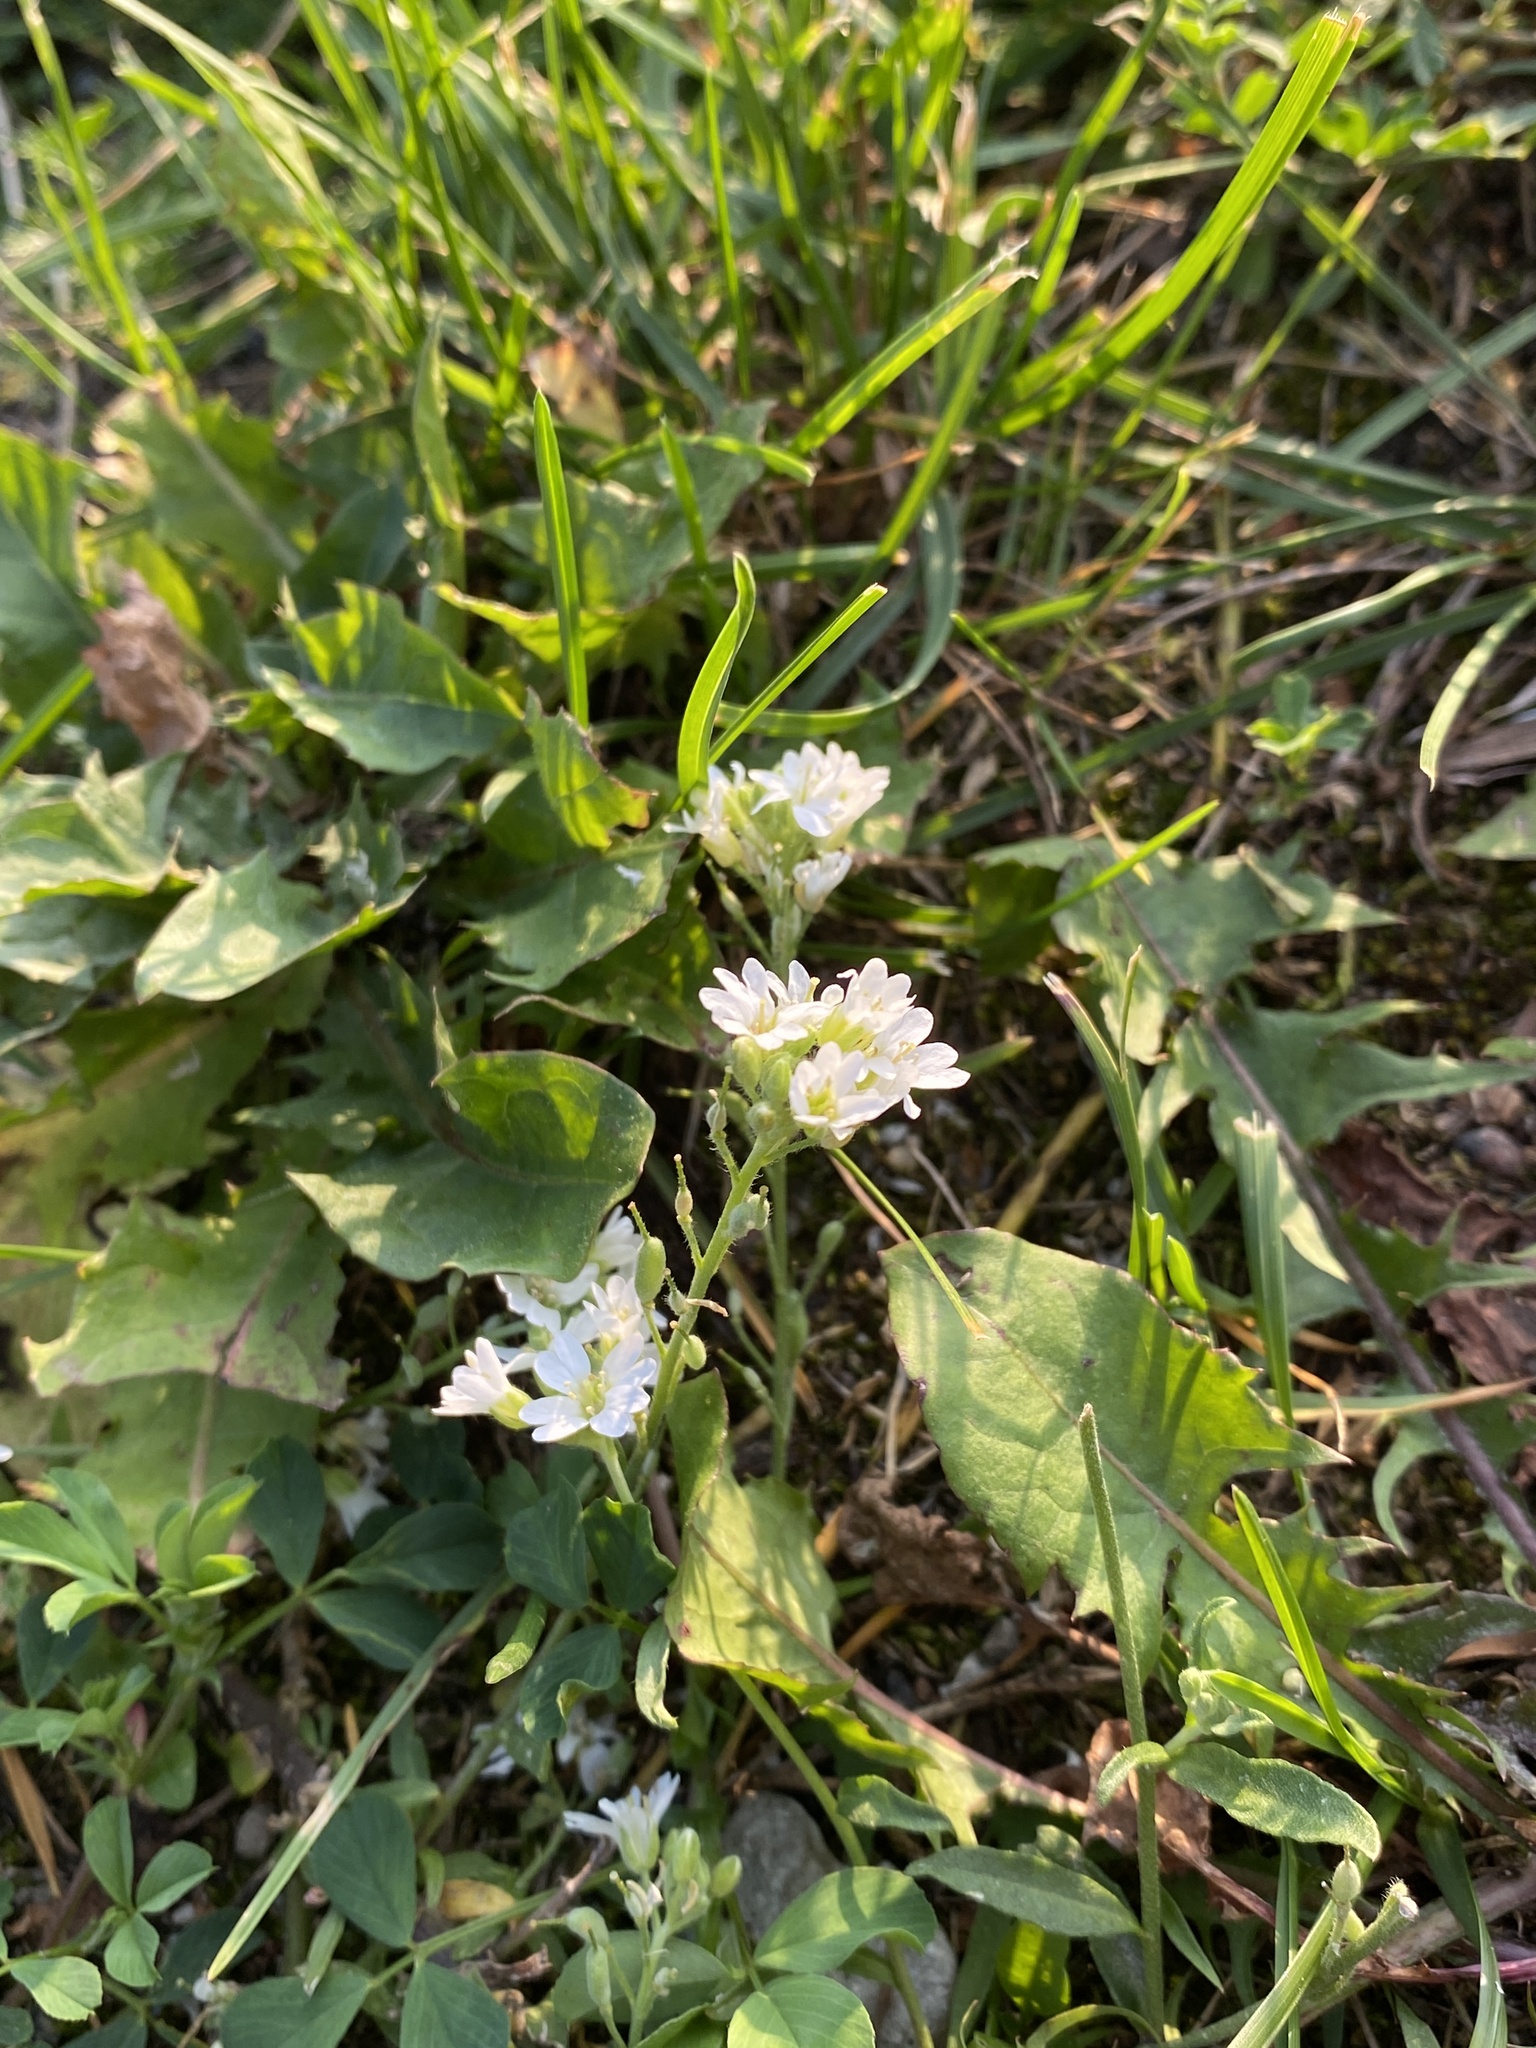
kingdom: Plantae
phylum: Tracheophyta
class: Magnoliopsida
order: Brassicales
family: Brassicaceae
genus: Berteroa
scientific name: Berteroa incana
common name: Hoary alison
